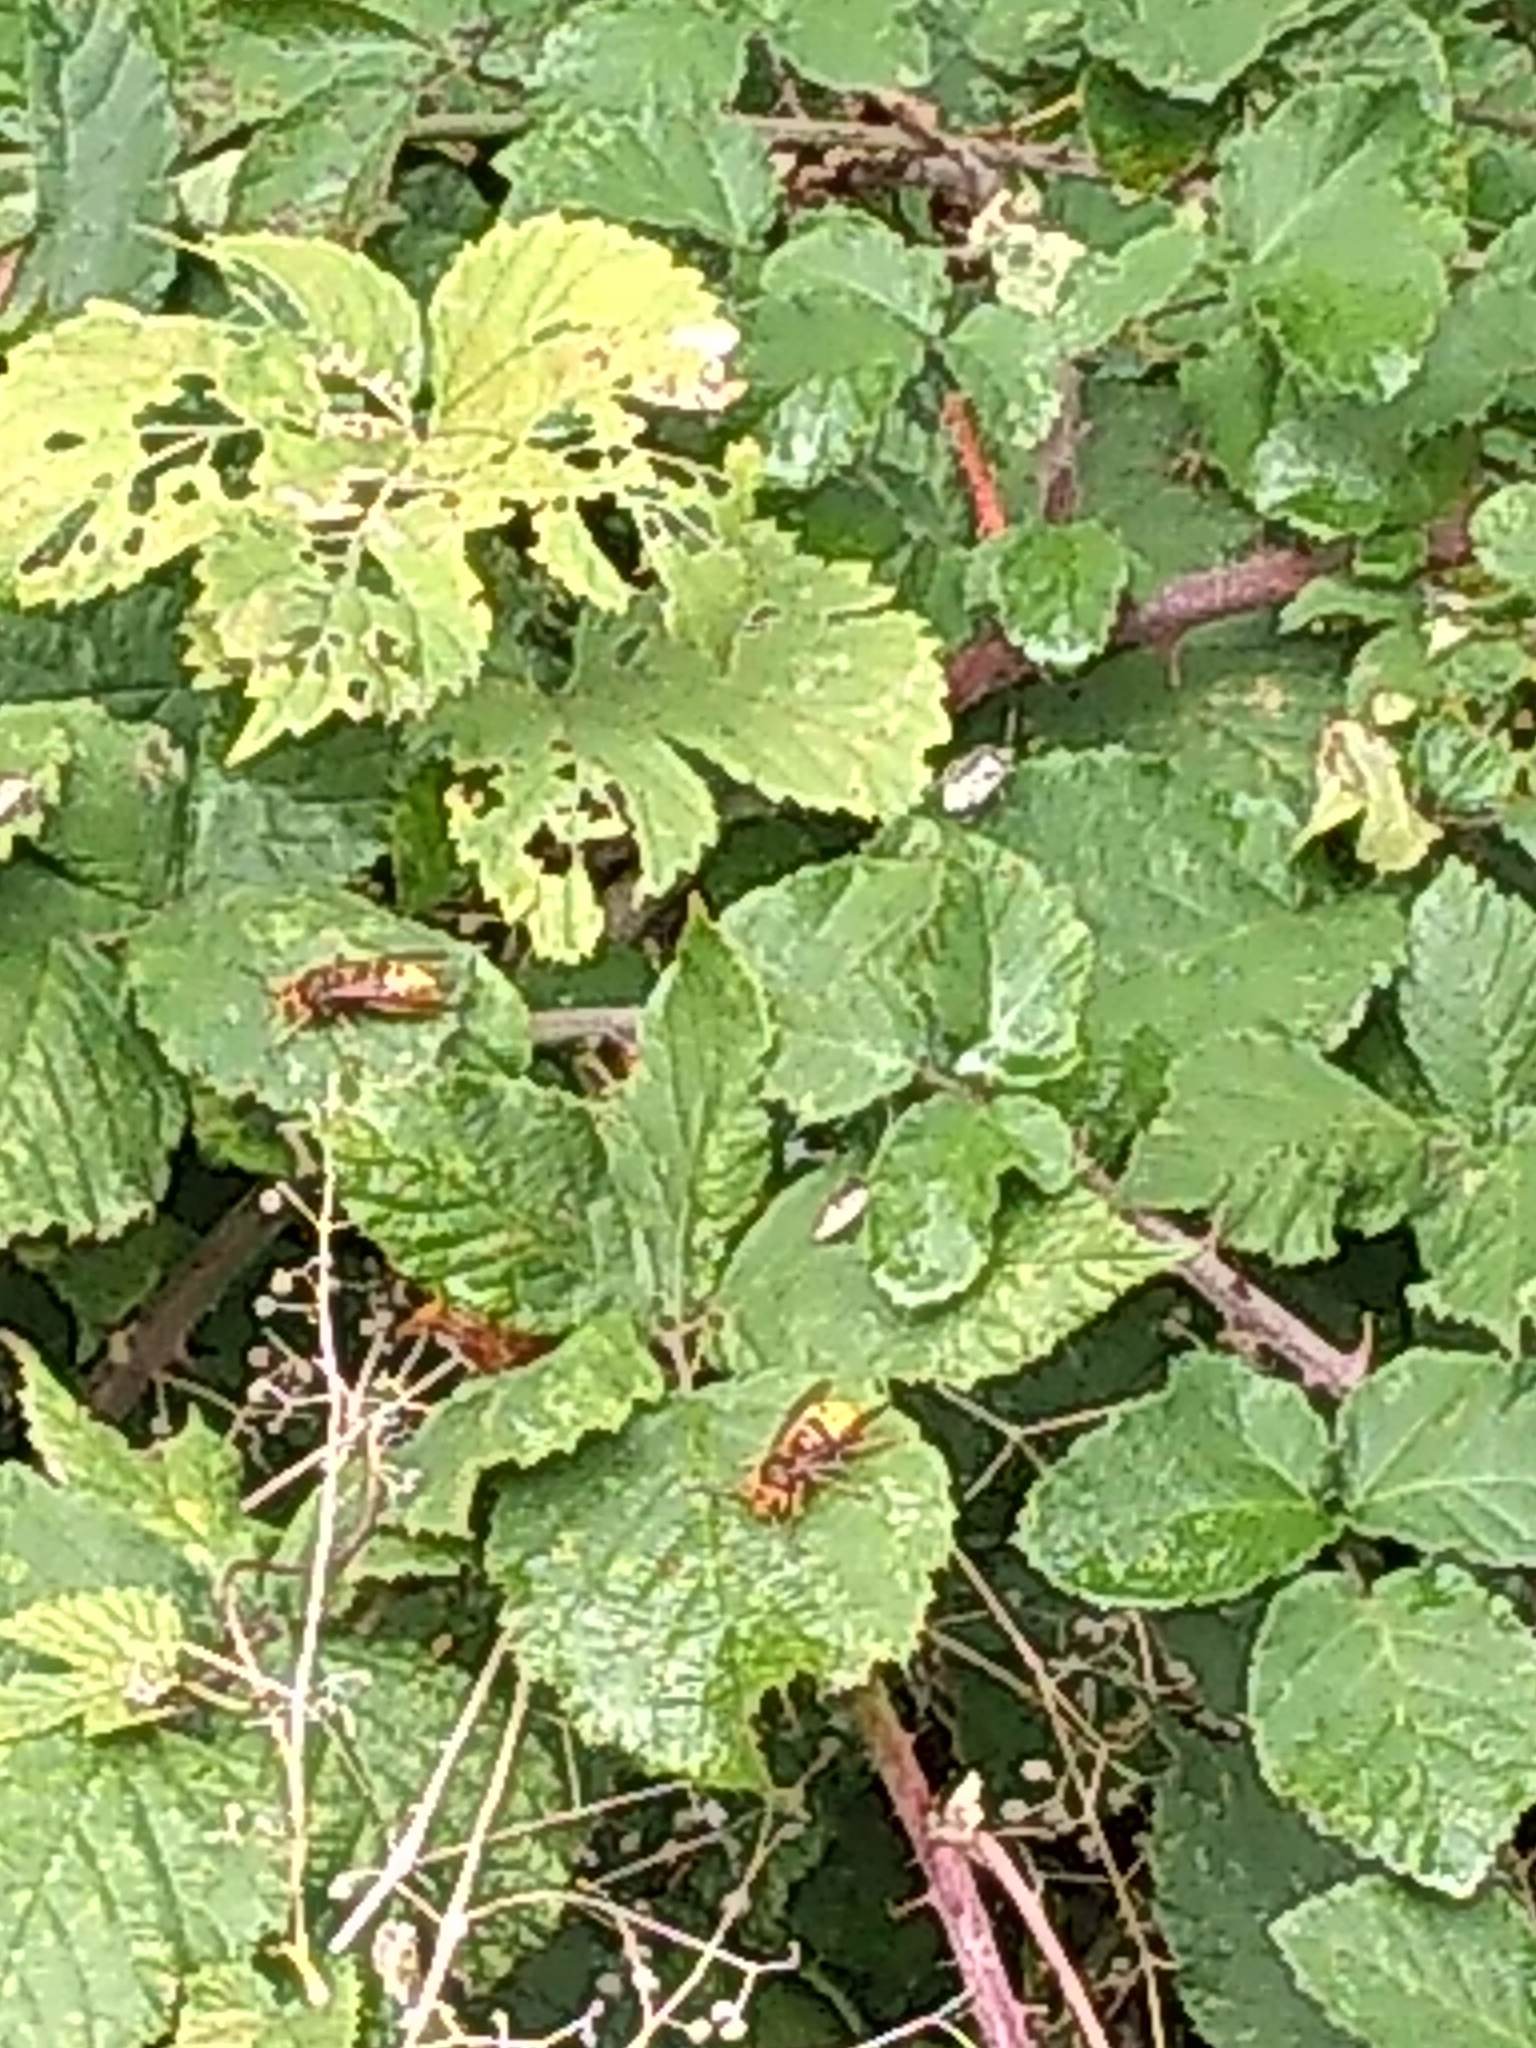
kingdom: Animalia
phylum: Arthropoda
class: Insecta
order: Hymenoptera
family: Vespidae
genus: Vespa
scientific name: Vespa crabro
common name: Hornet
